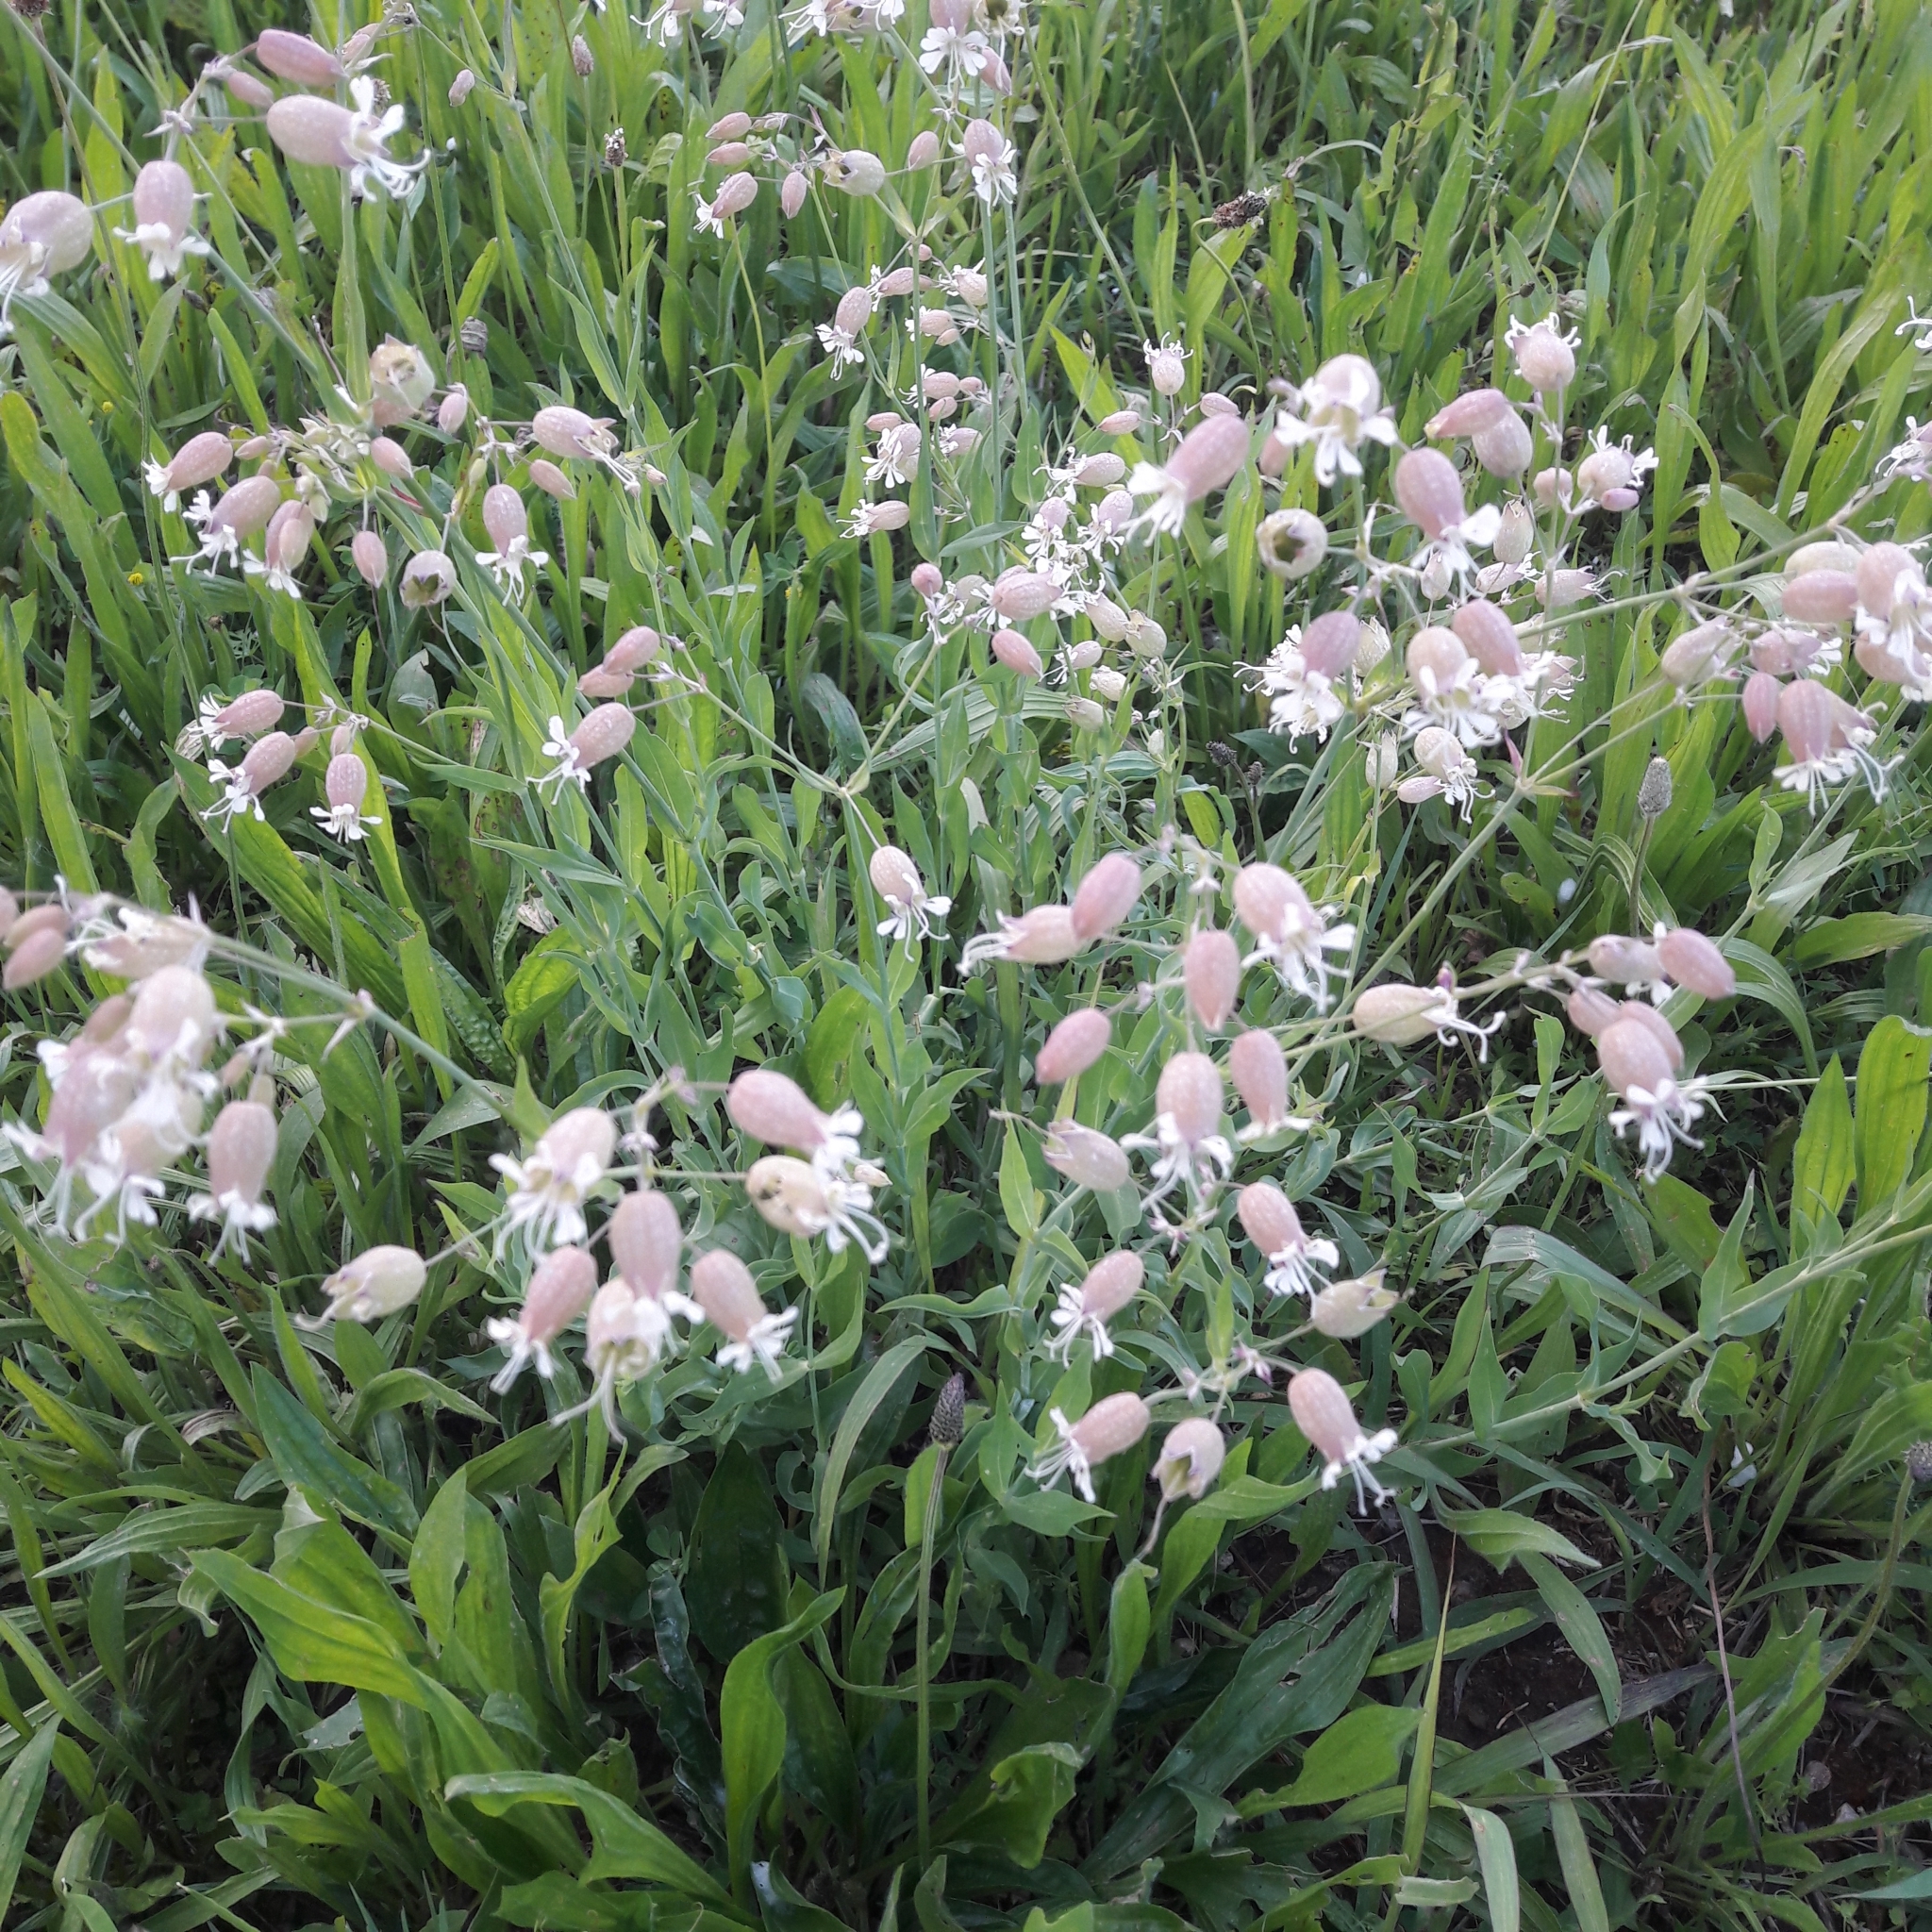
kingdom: Plantae
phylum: Tracheophyta
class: Magnoliopsida
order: Caryophyllales
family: Caryophyllaceae
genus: Silene
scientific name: Silene vulgaris
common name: Bladder campion
